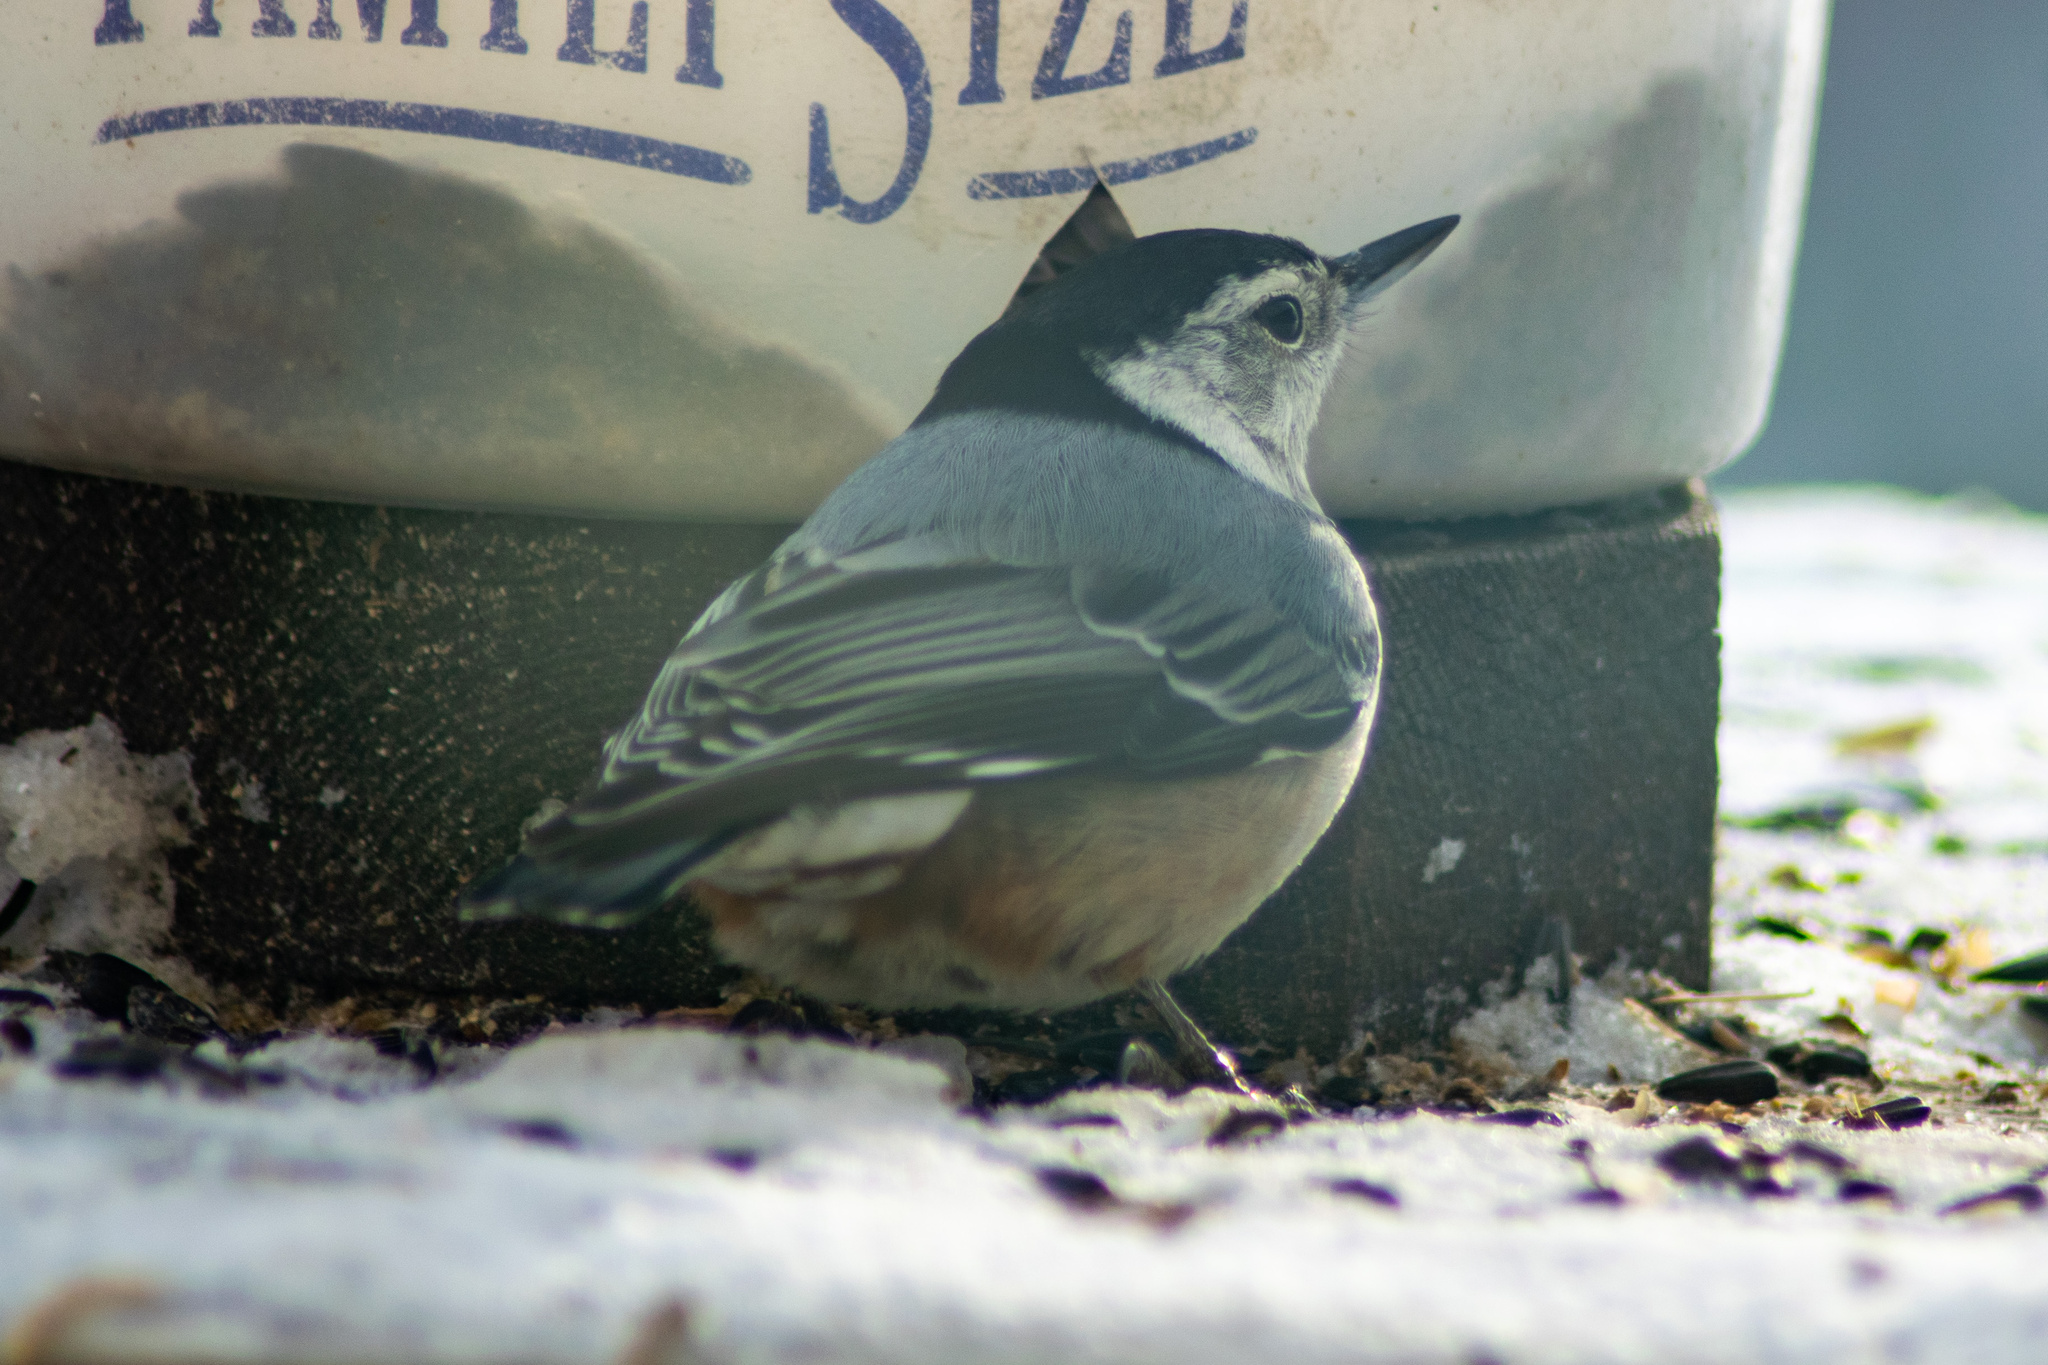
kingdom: Animalia
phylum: Chordata
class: Aves
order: Passeriformes
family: Sittidae
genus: Sitta
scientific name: Sitta carolinensis
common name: White-breasted nuthatch
